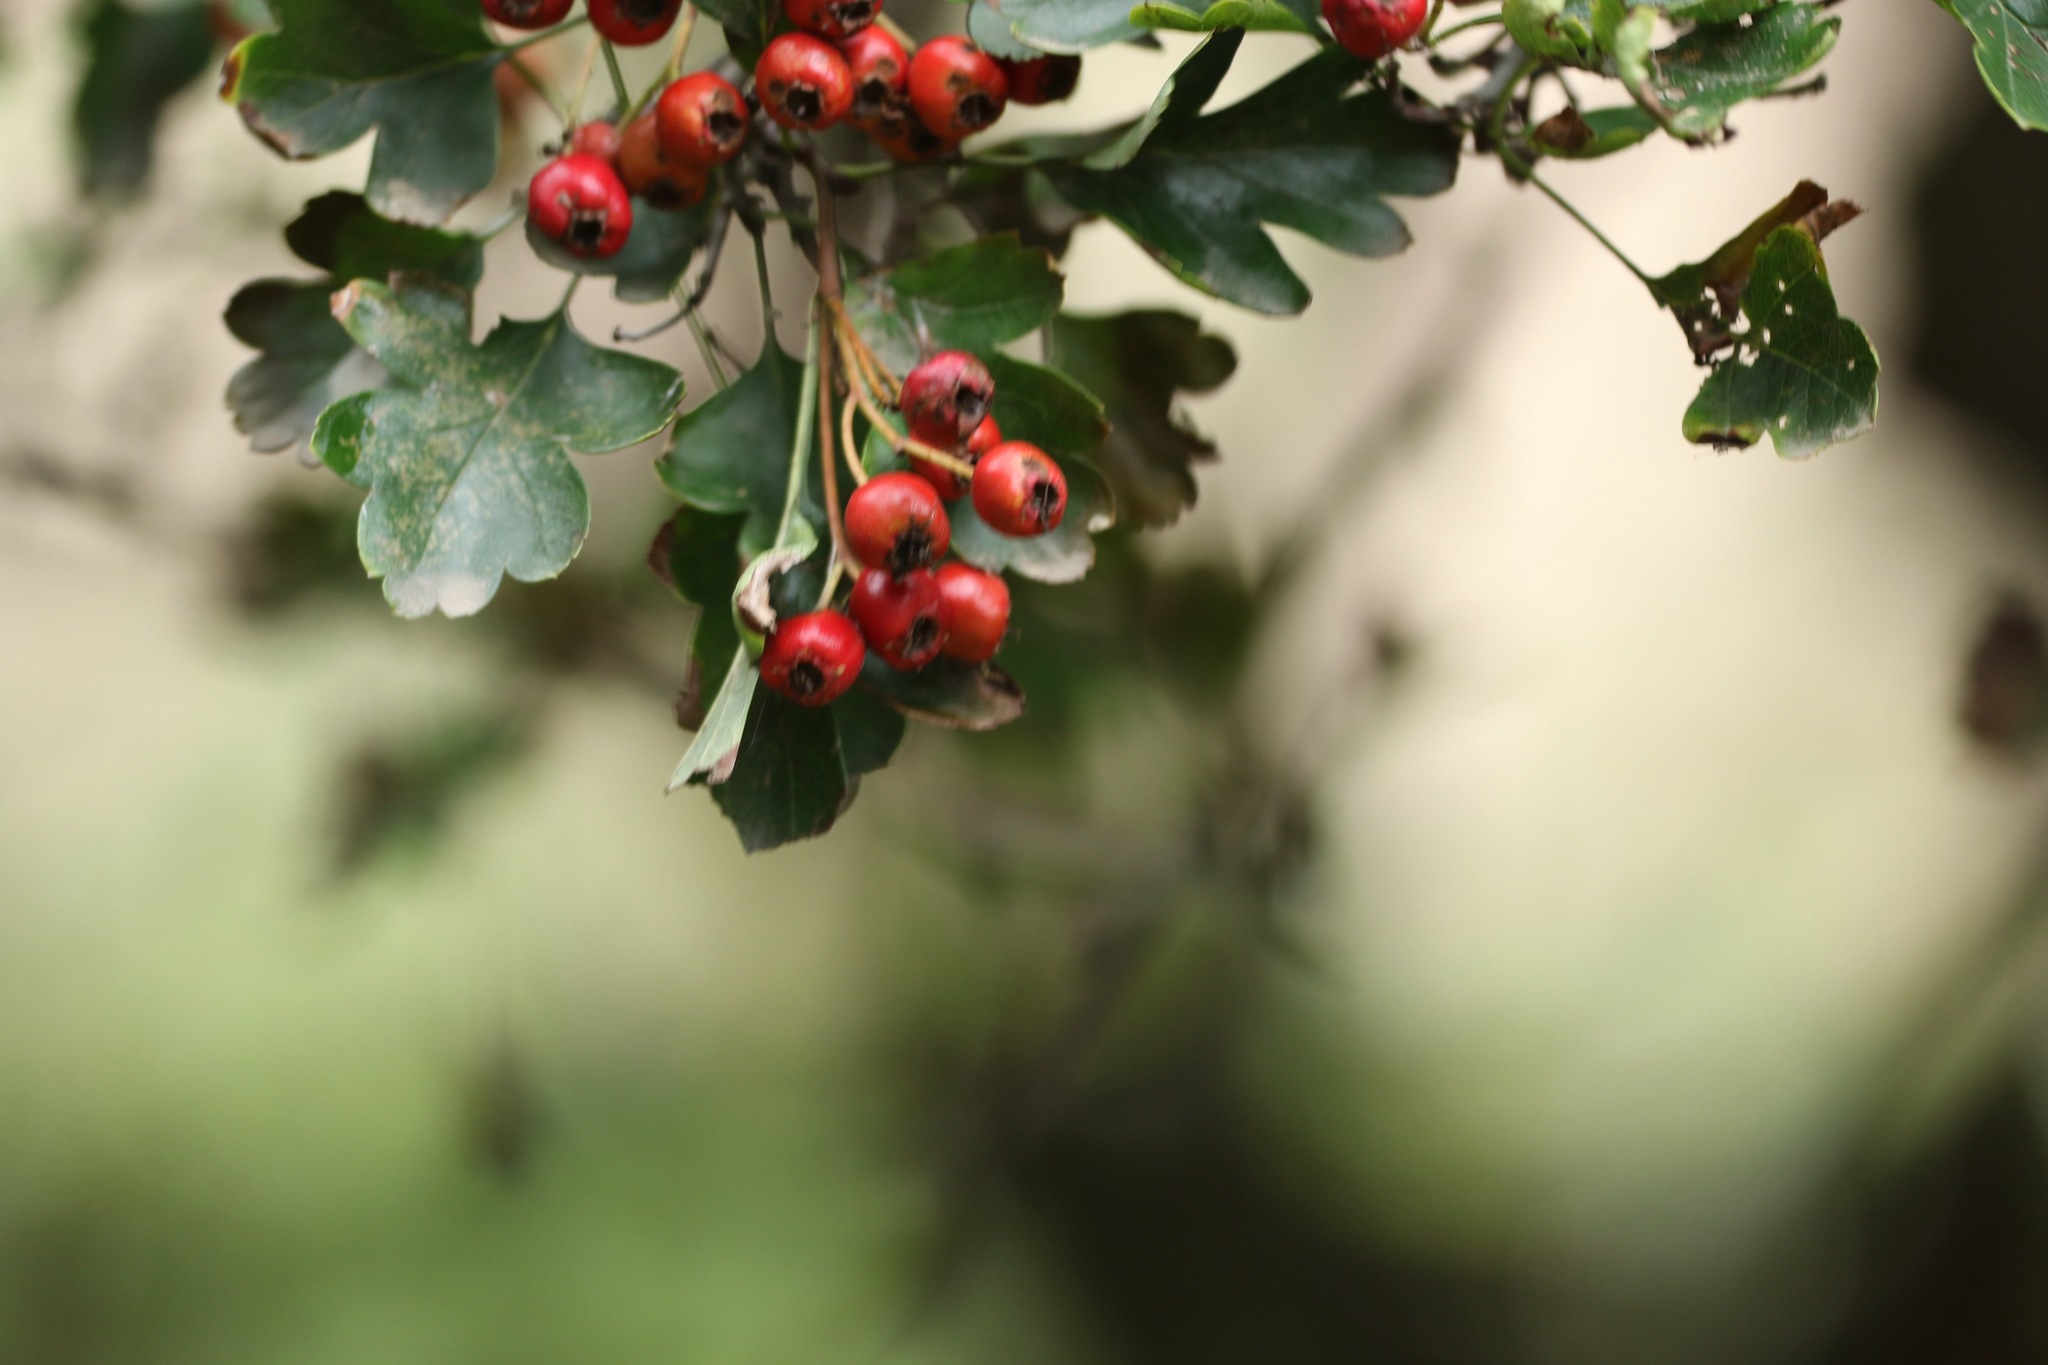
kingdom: Plantae
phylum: Tracheophyta
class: Magnoliopsida
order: Rosales
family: Rosaceae
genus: Crataegus
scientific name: Crataegus monogyna
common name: Hawthorn
